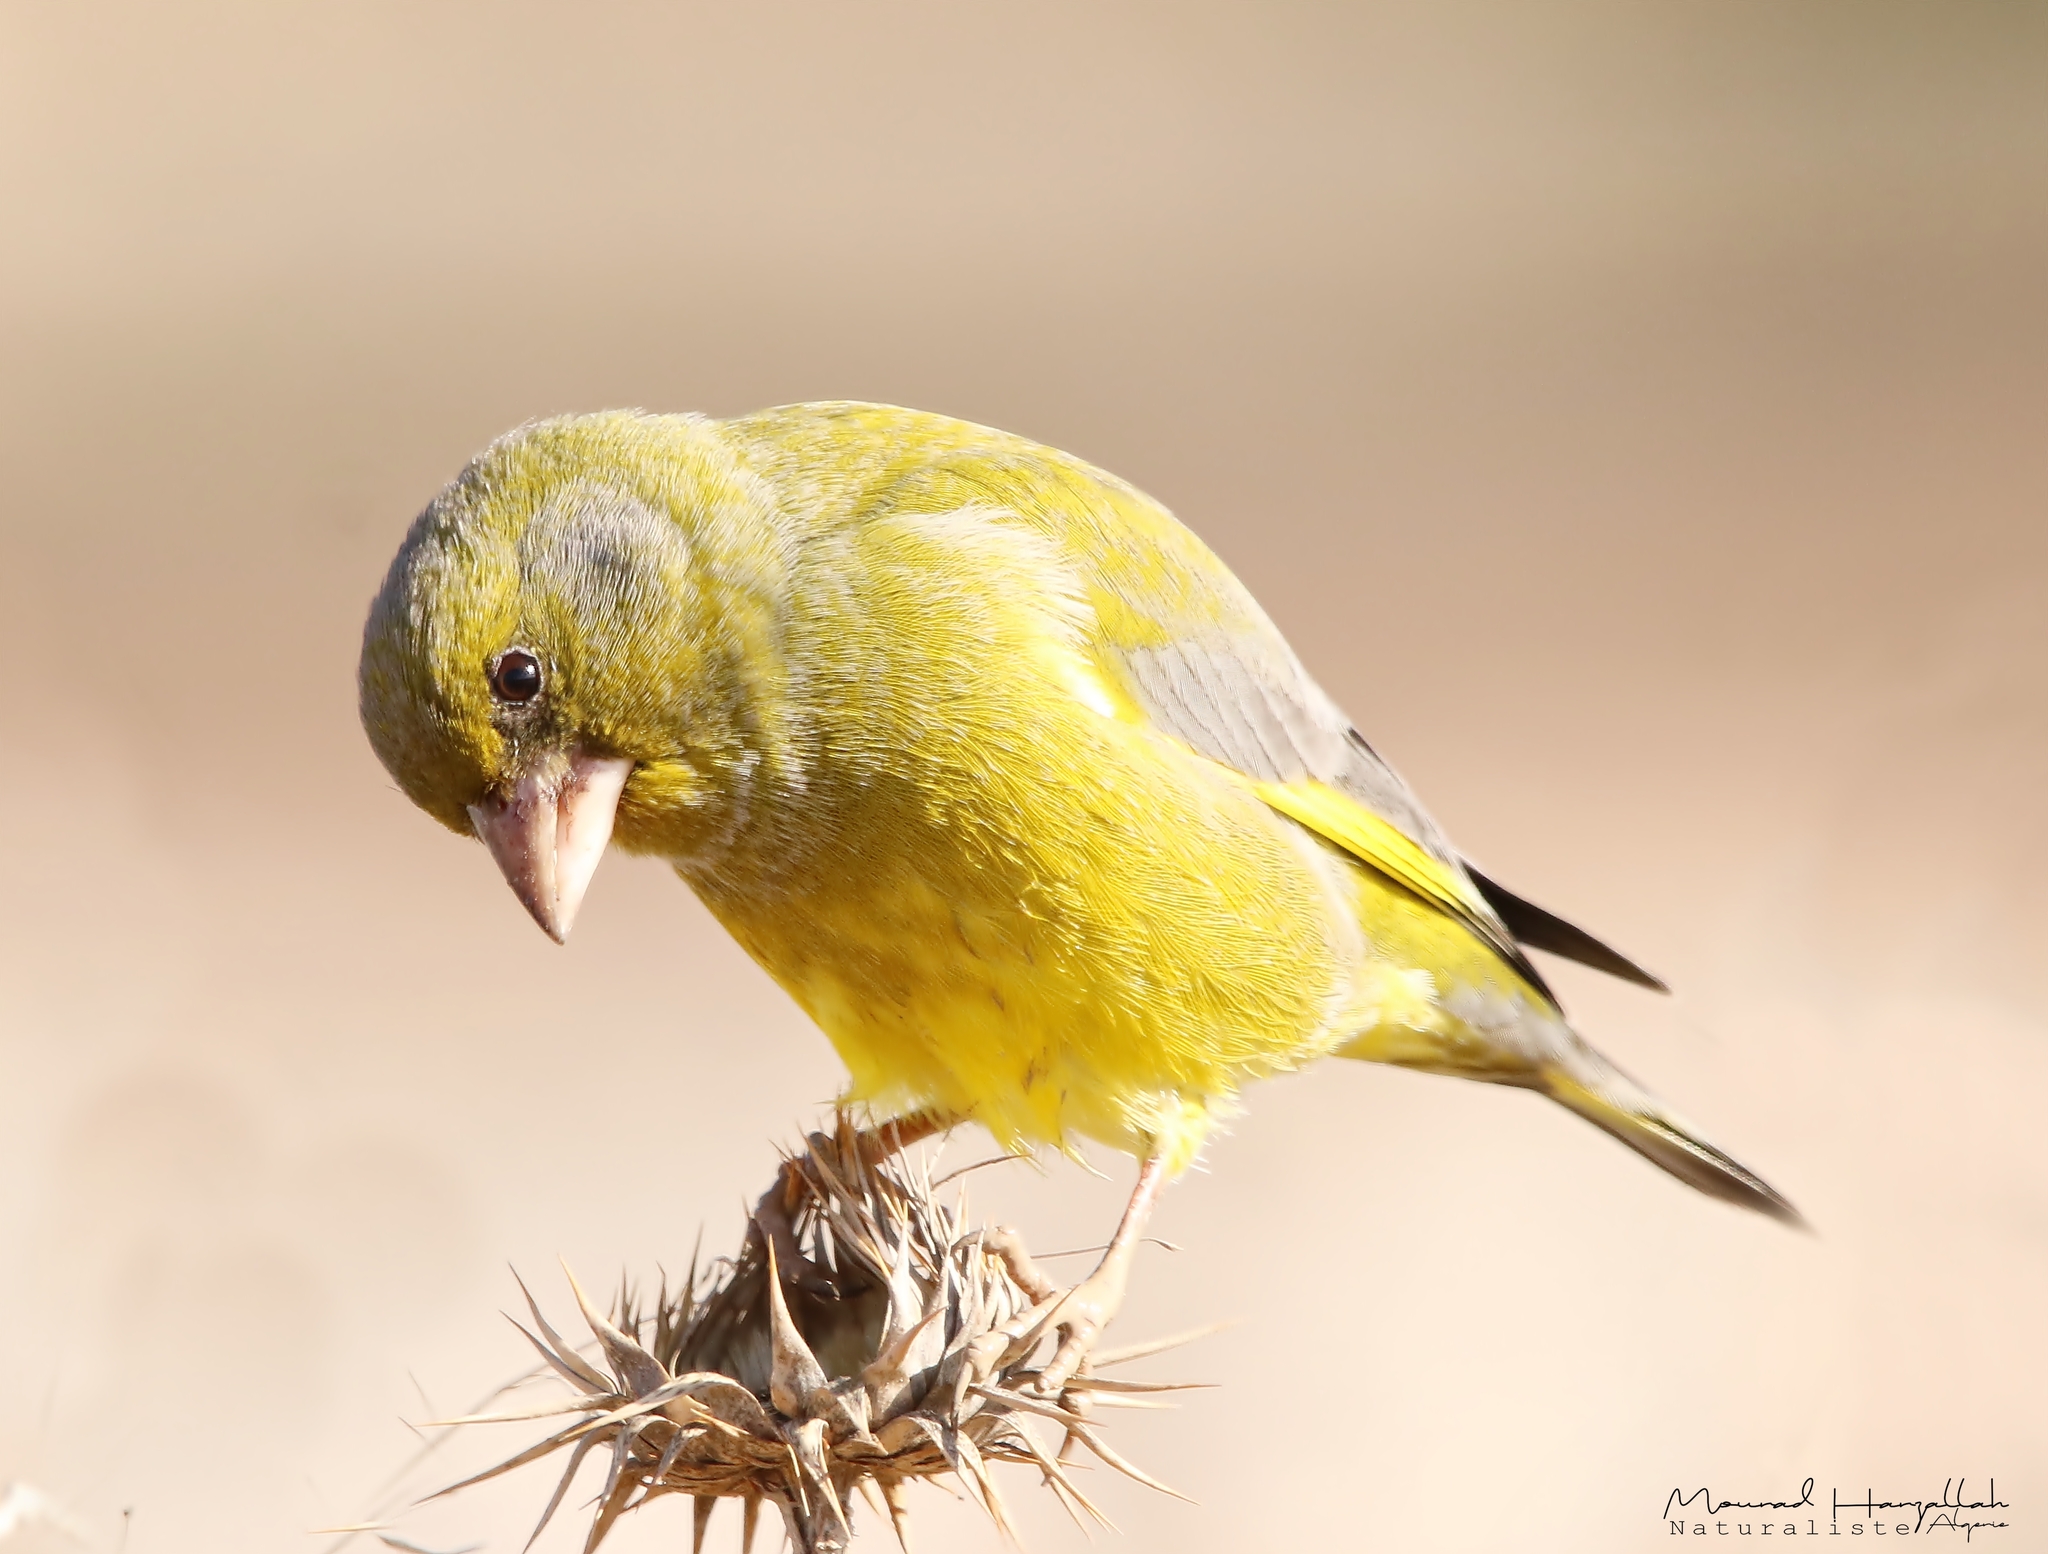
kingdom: Plantae
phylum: Tracheophyta
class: Liliopsida
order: Poales
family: Poaceae
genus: Chloris
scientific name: Chloris chloris
